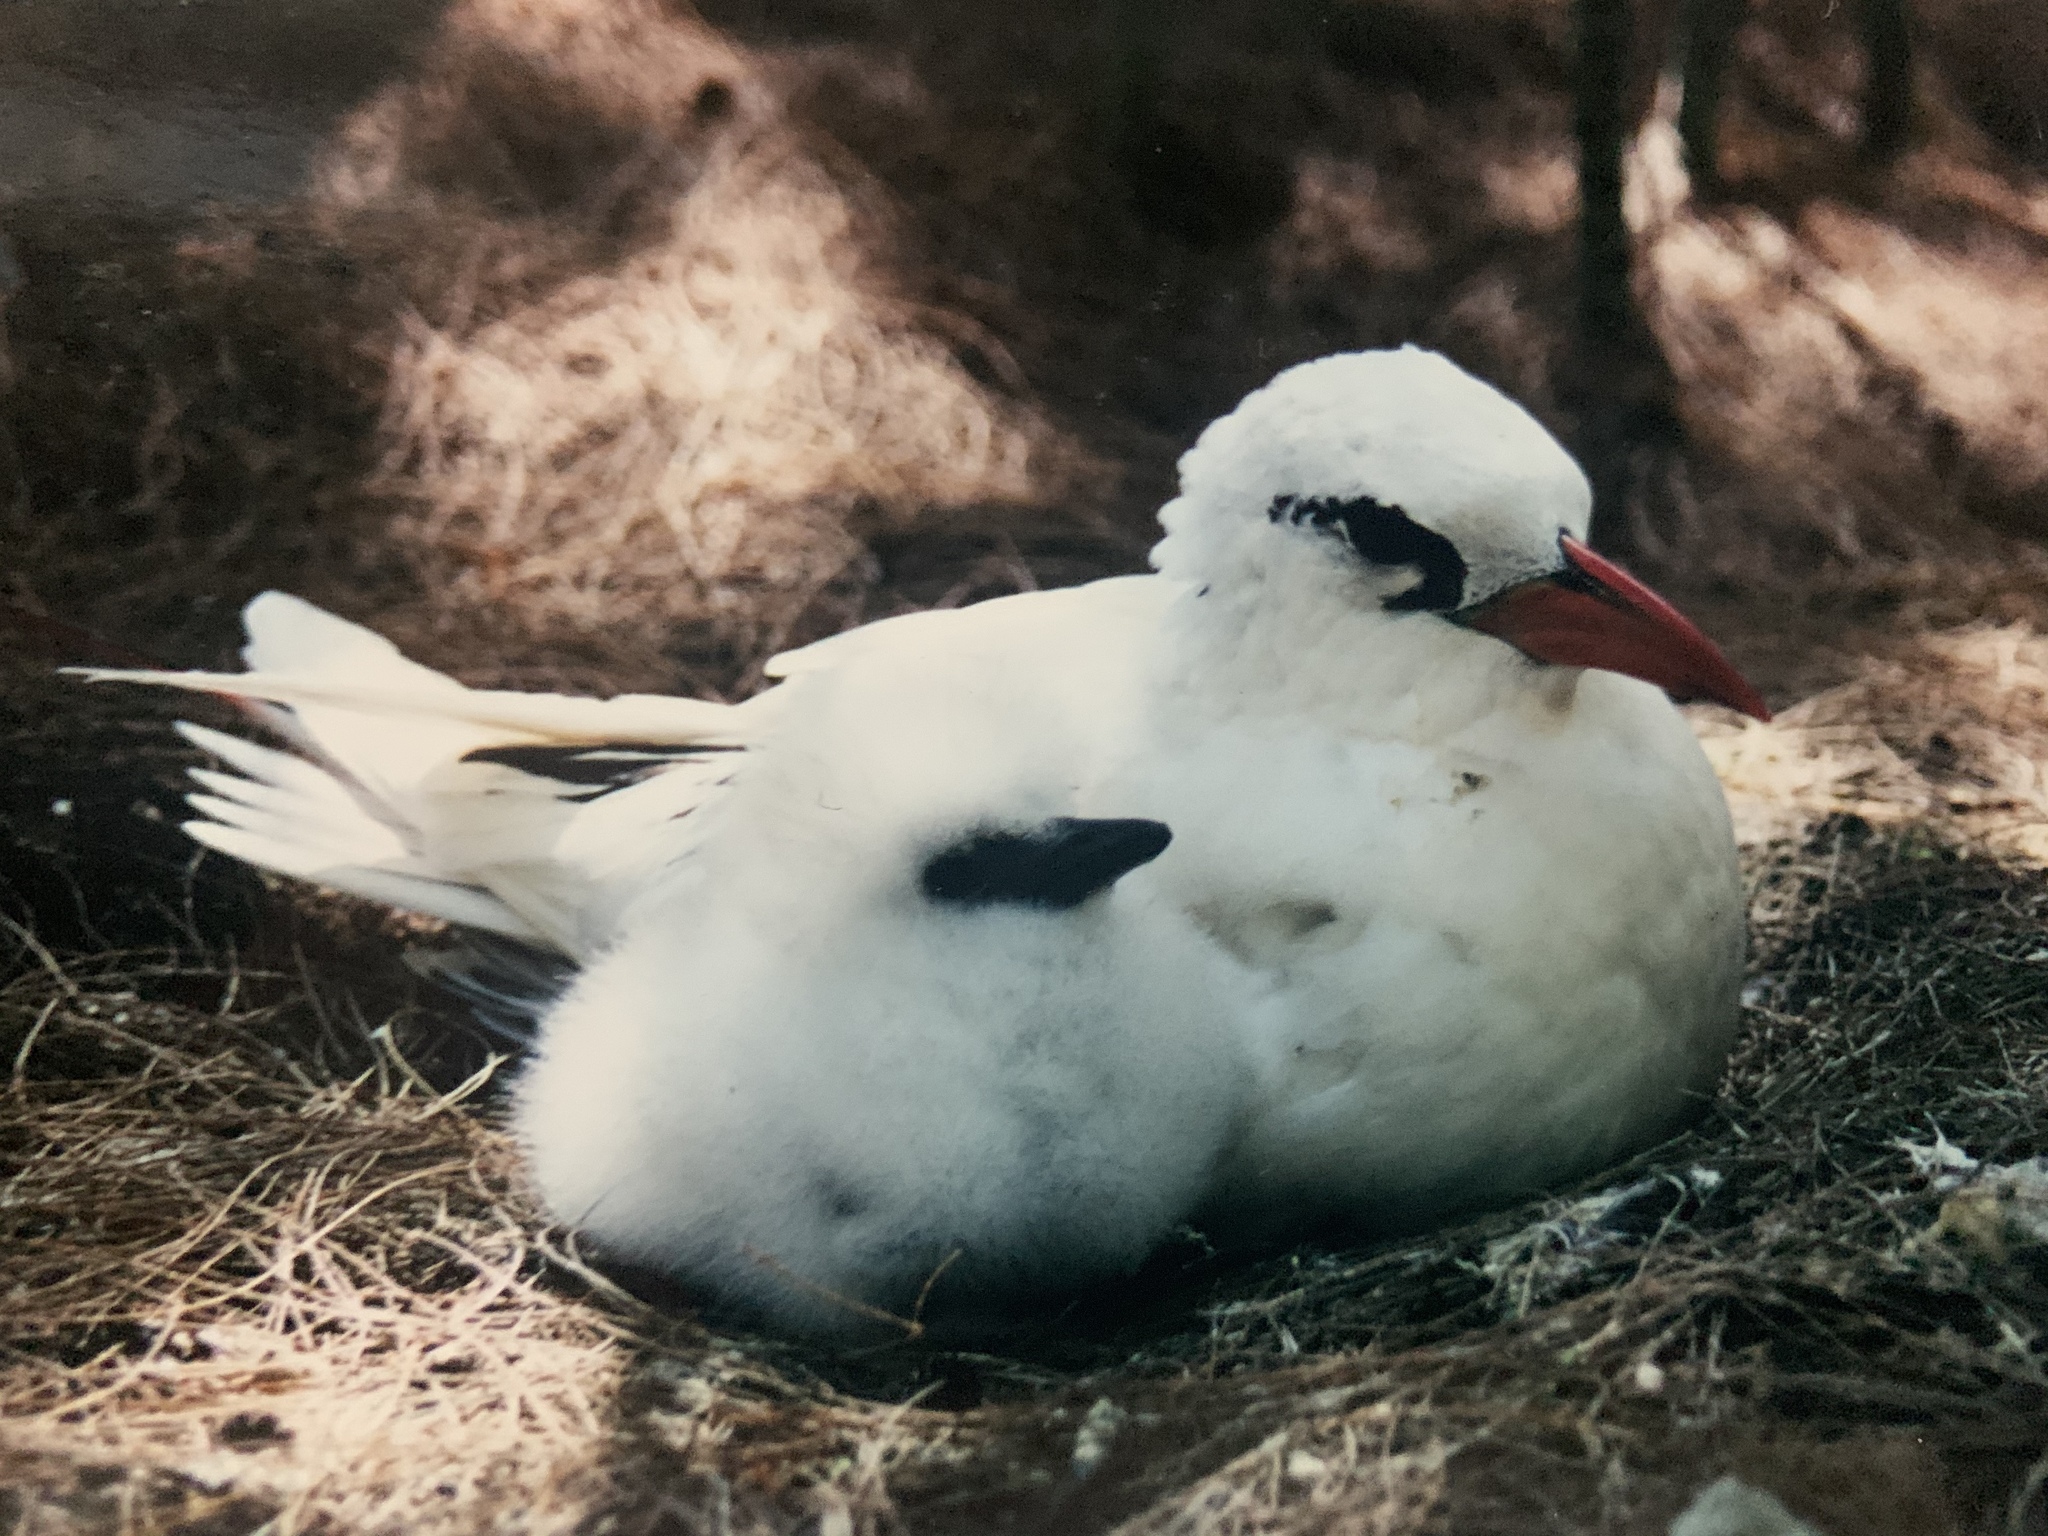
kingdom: Animalia
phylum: Chordata
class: Aves
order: Phaethontiformes
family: Phaethontidae
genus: Phaethon
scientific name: Phaethon rubricauda
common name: Red-tailed tropicbird
